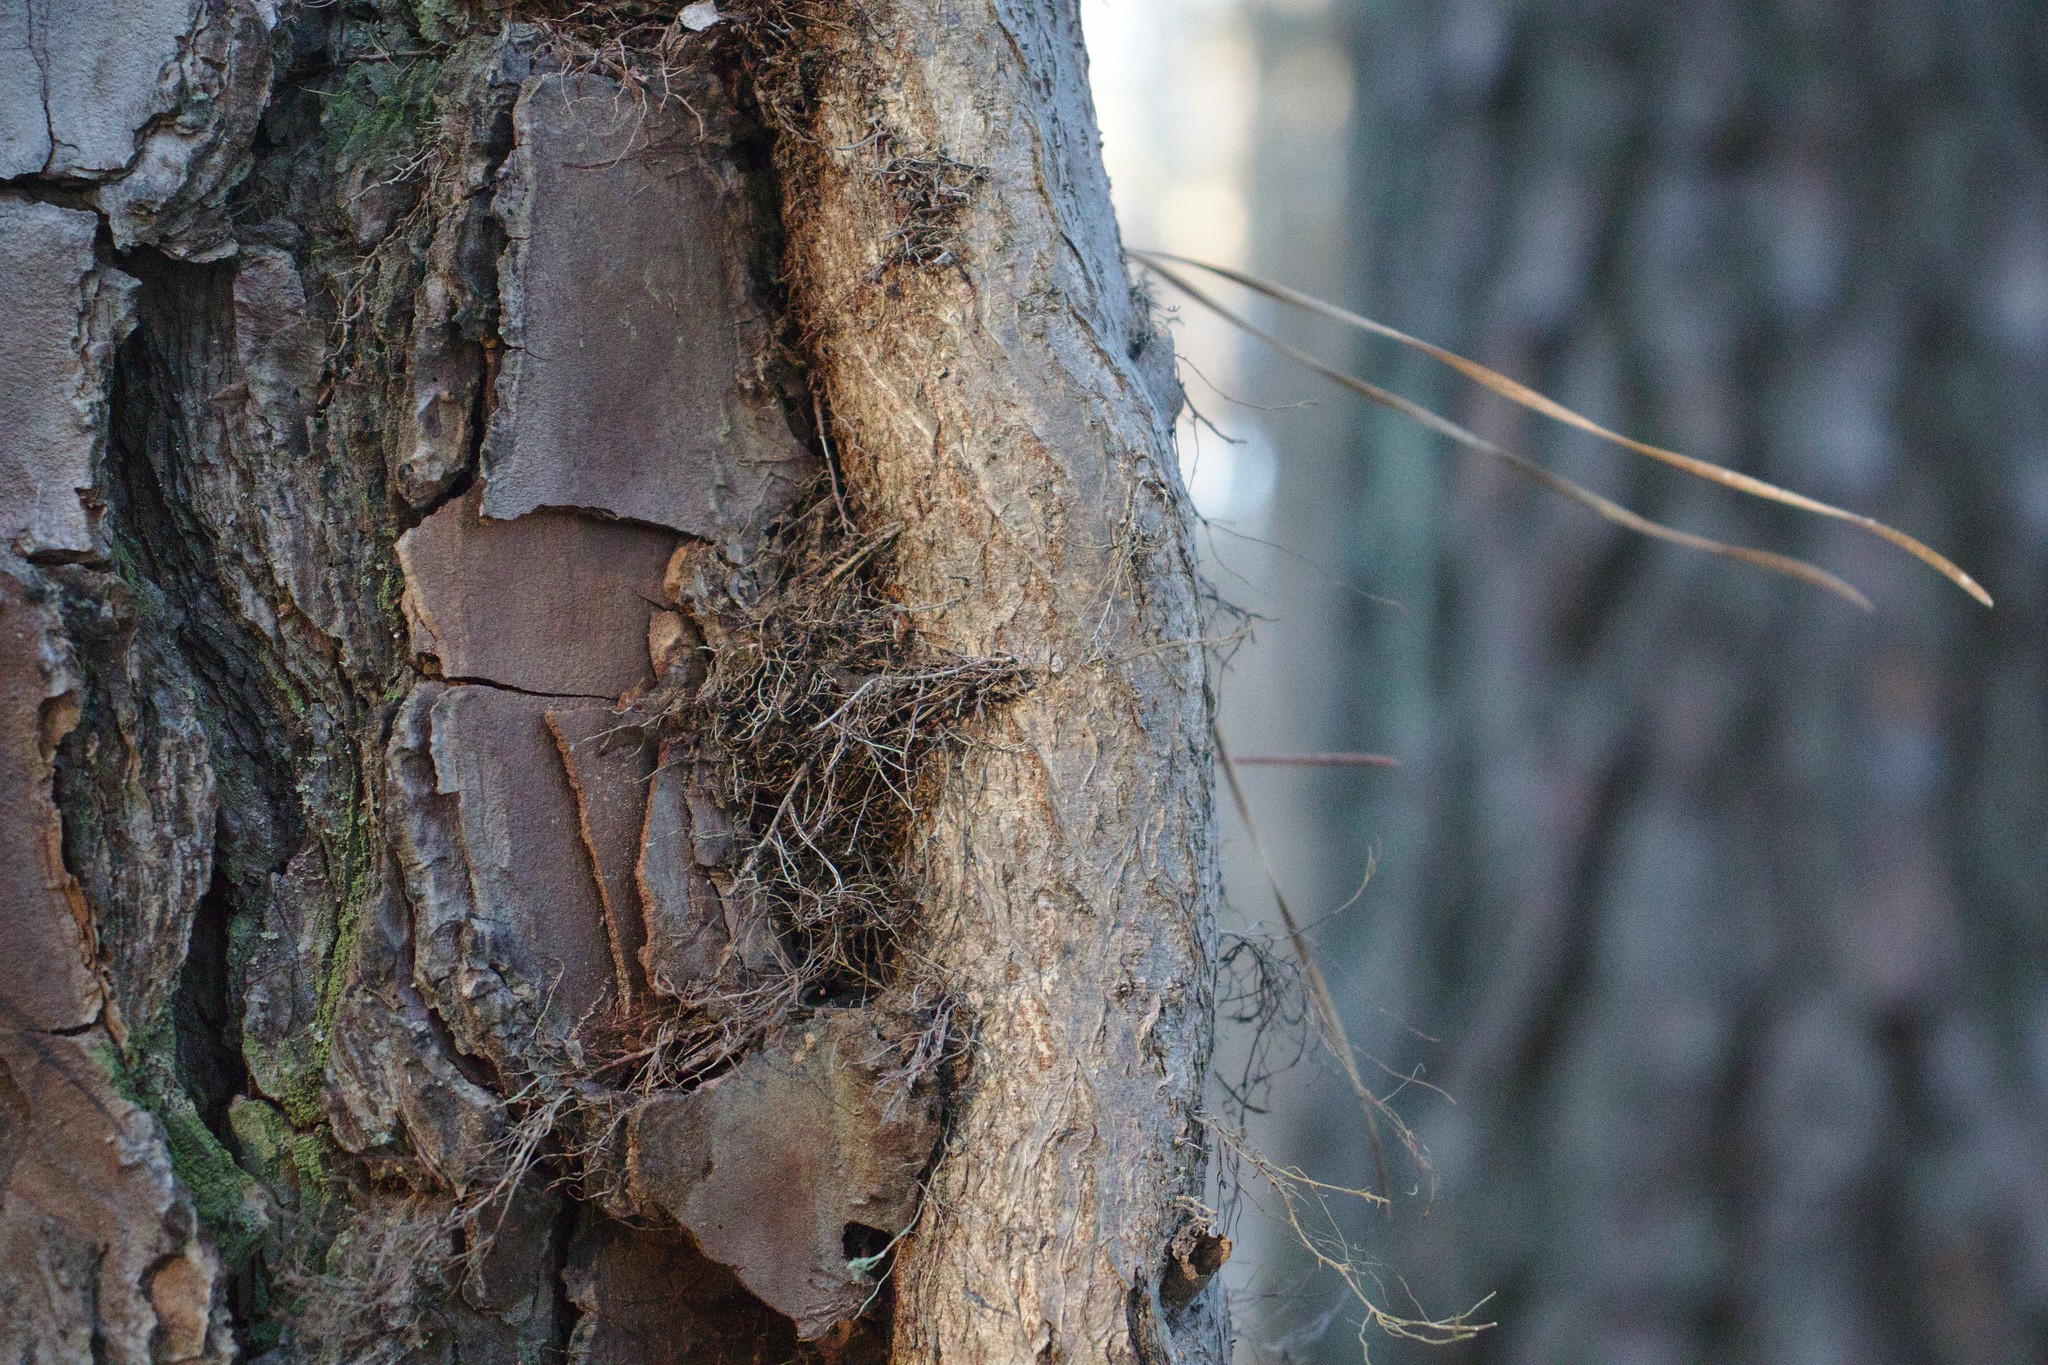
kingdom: Plantae
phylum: Tracheophyta
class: Magnoliopsida
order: Sapindales
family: Anacardiaceae
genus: Toxicodendron
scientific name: Toxicodendron radicans
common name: Poison ivy
